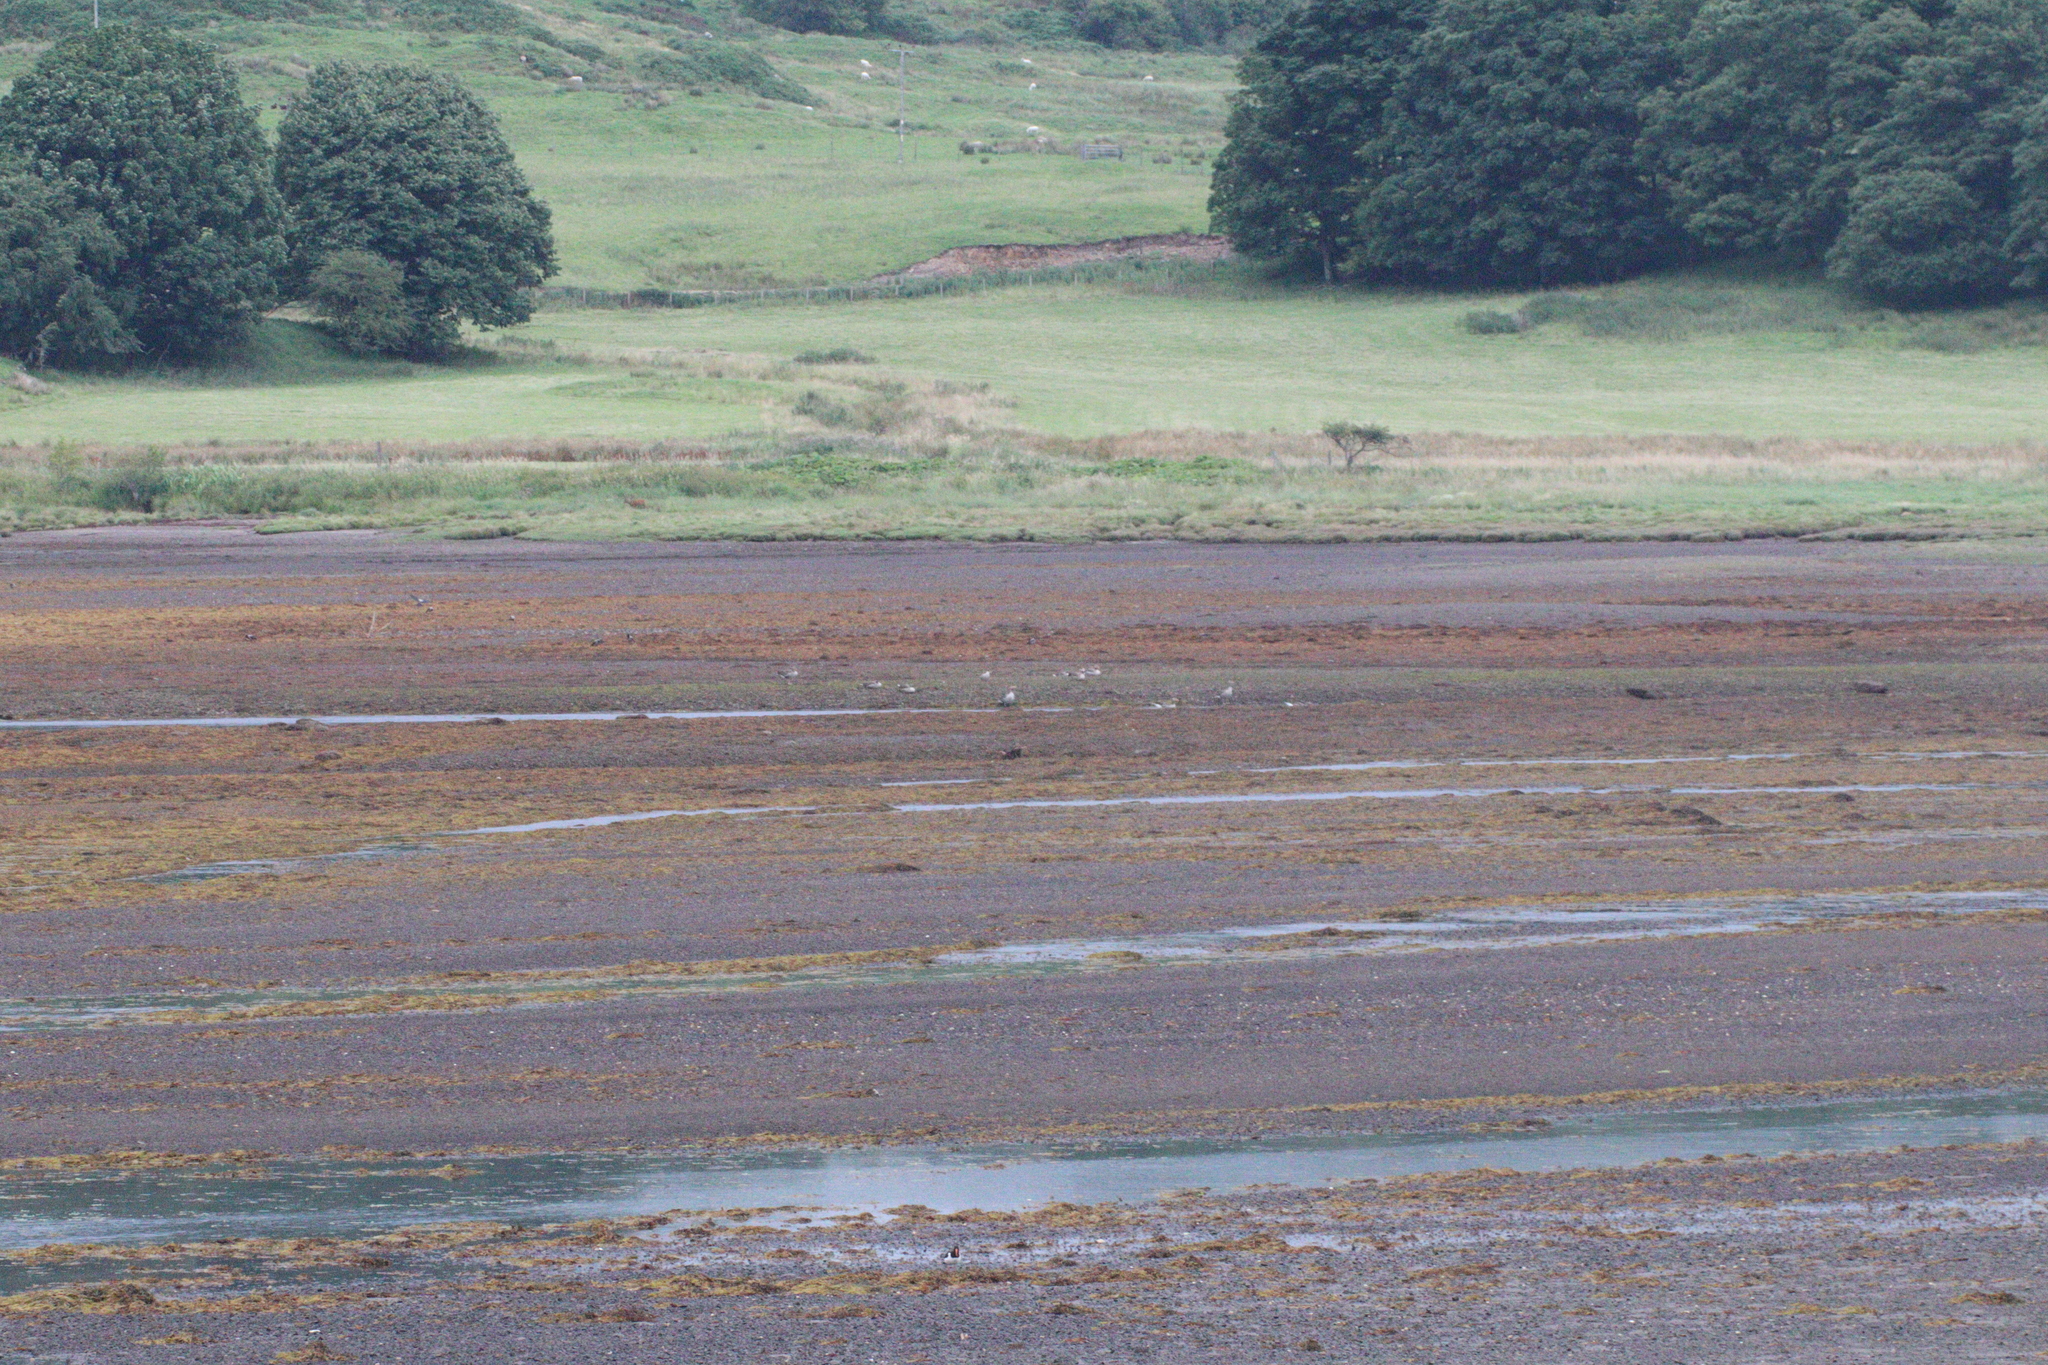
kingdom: Animalia
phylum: Chordata
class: Aves
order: Anseriformes
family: Anatidae
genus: Anser
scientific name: Anser anser
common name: Greylag goose
